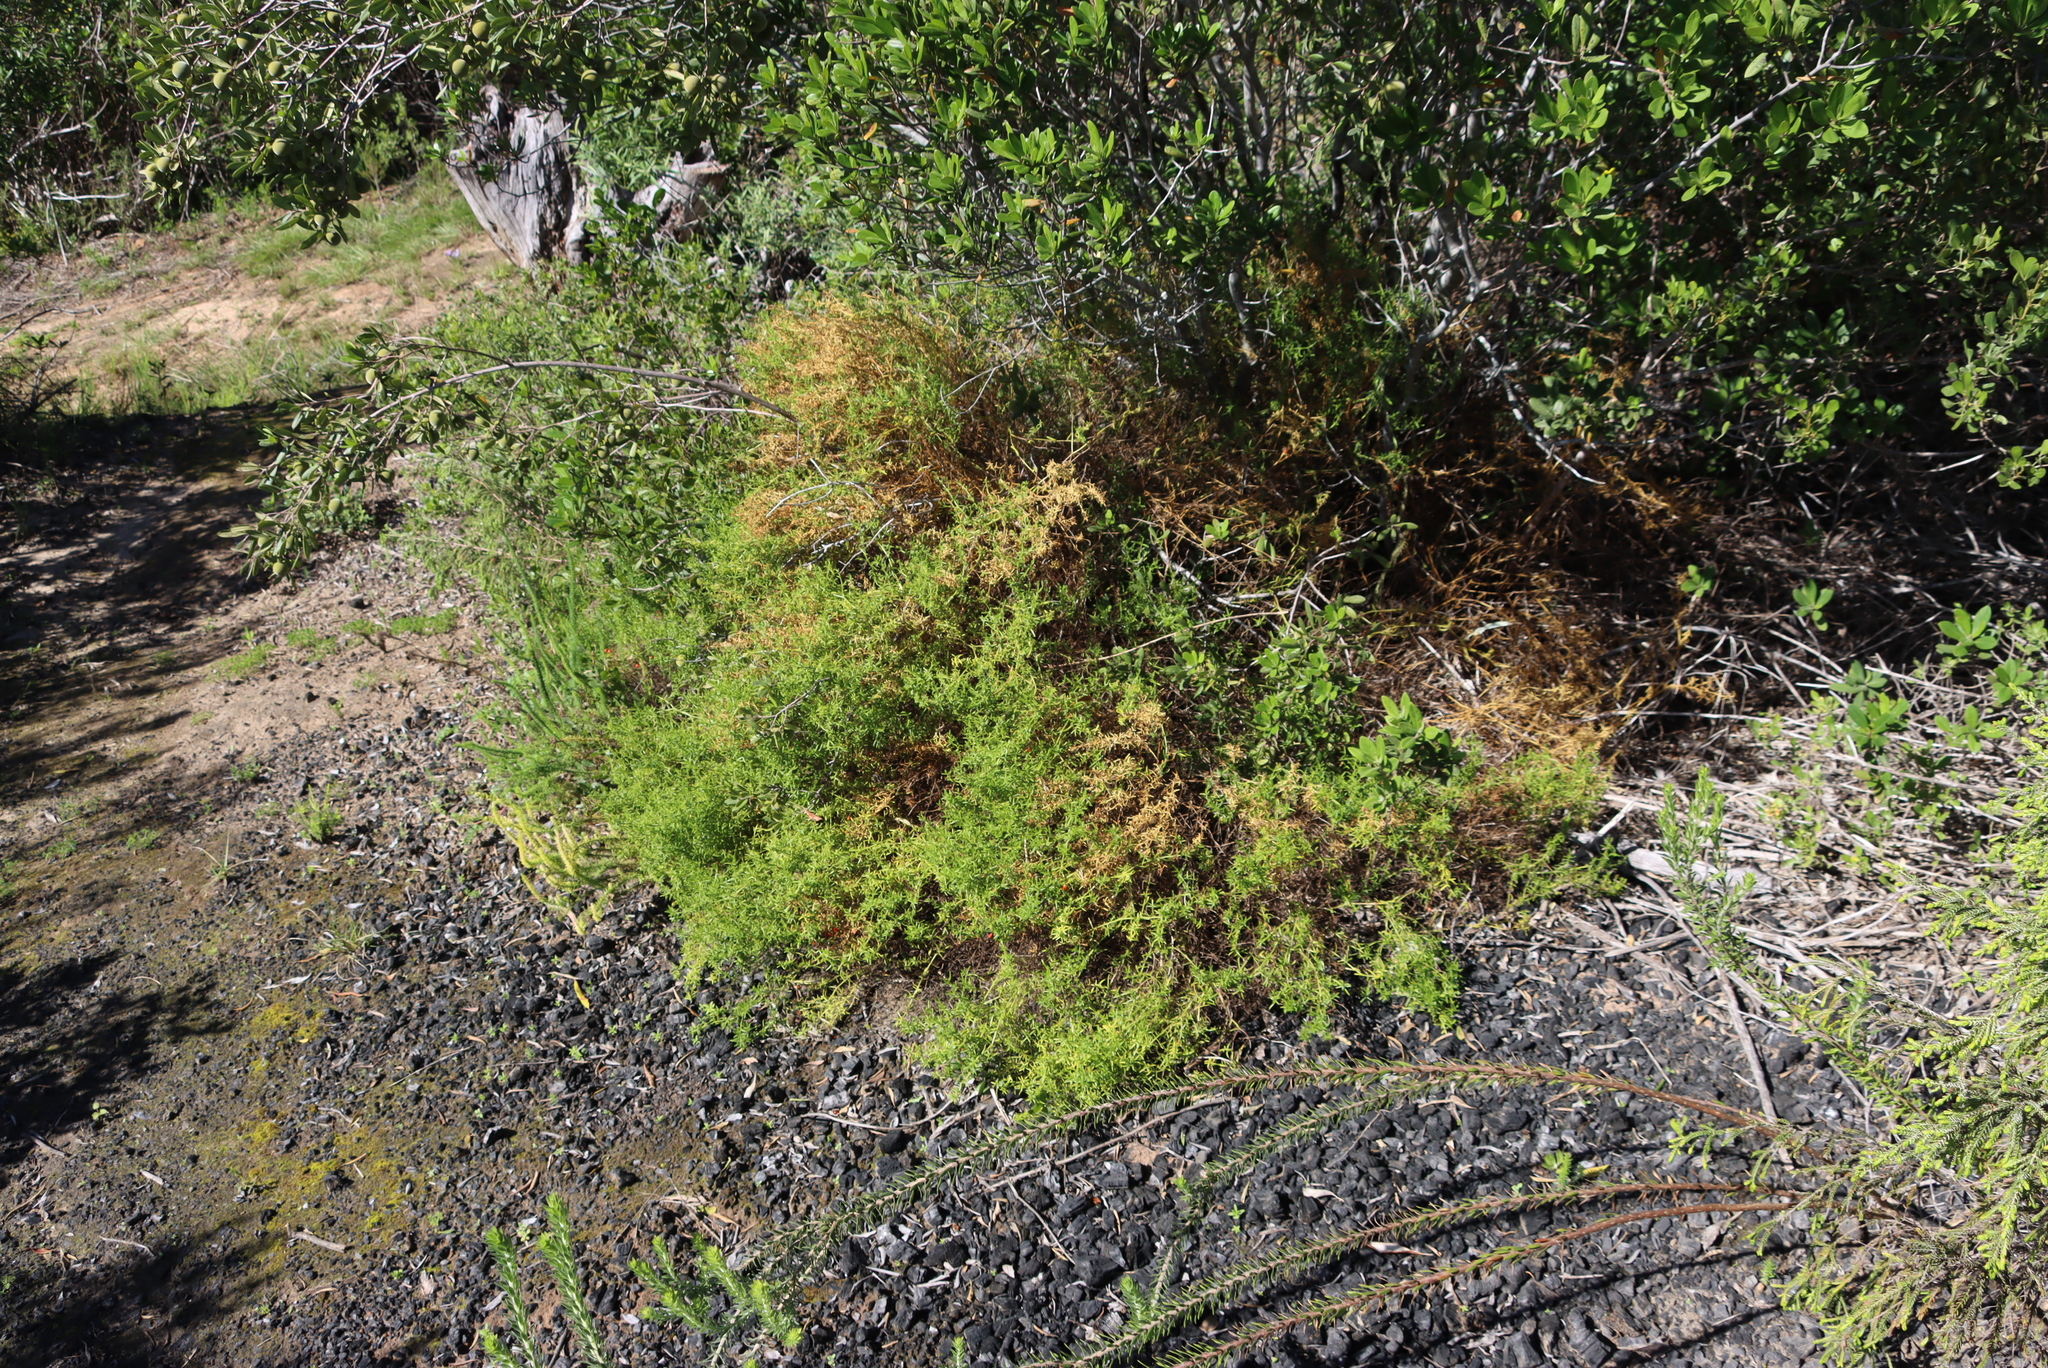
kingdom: Plantae
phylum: Tracheophyta
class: Magnoliopsida
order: Gentianales
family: Gentianaceae
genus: Chironia
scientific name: Chironia baccifera
